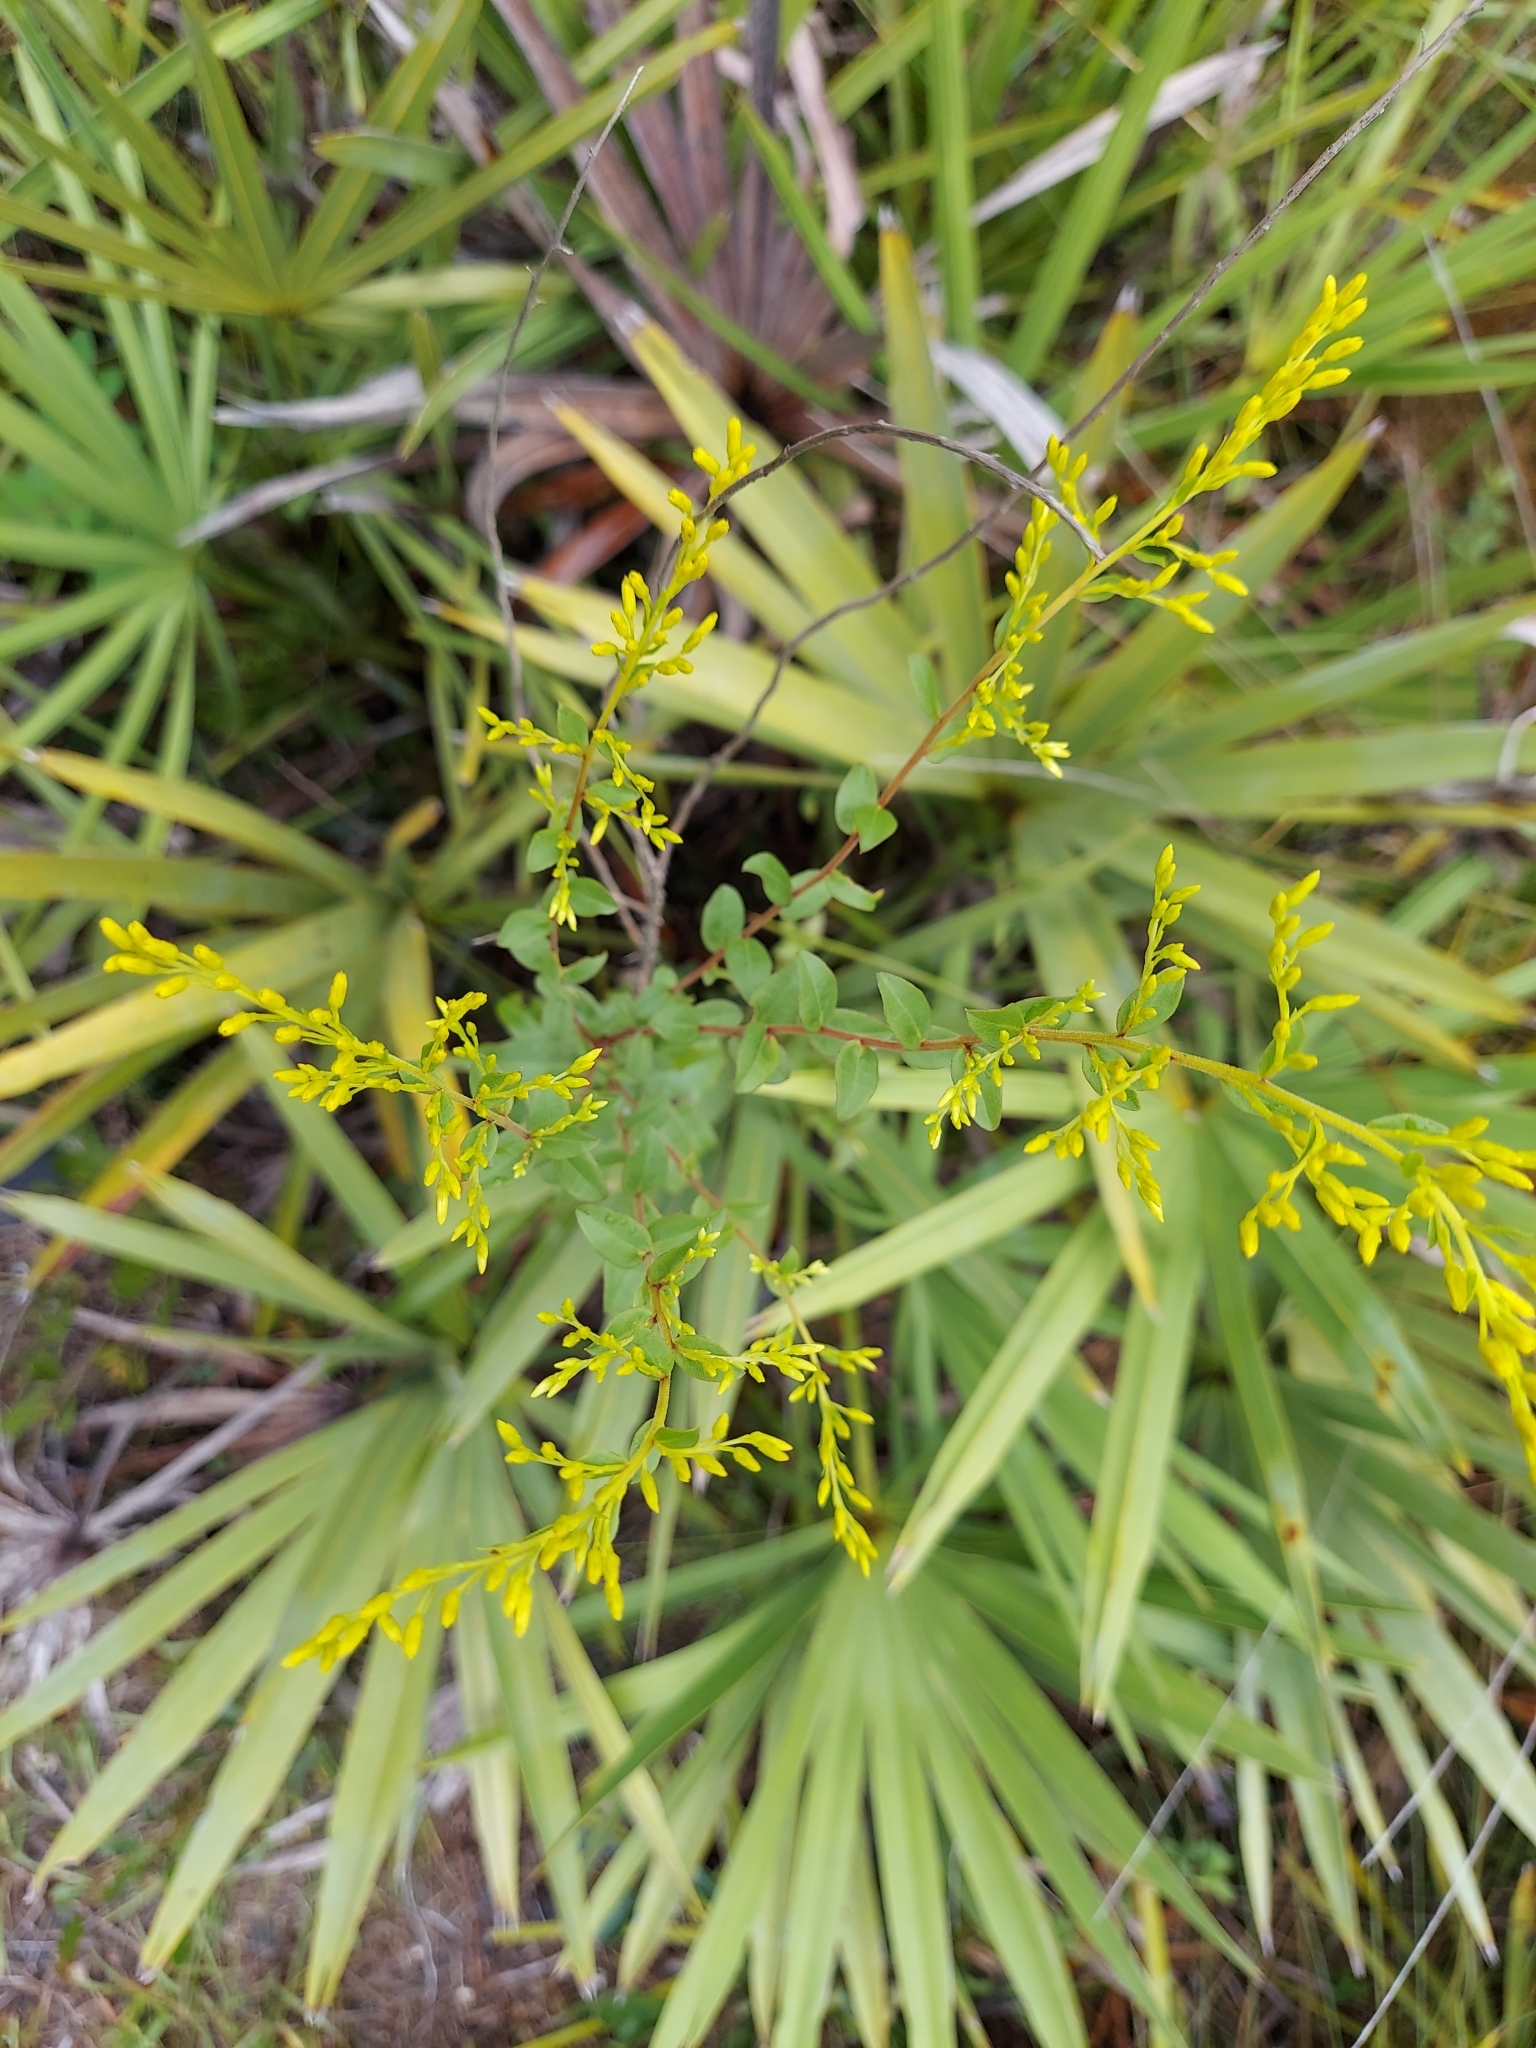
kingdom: Plantae
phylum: Tracheophyta
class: Magnoliopsida
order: Asterales
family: Asteraceae
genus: Solidago
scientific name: Solidago chapmanii
